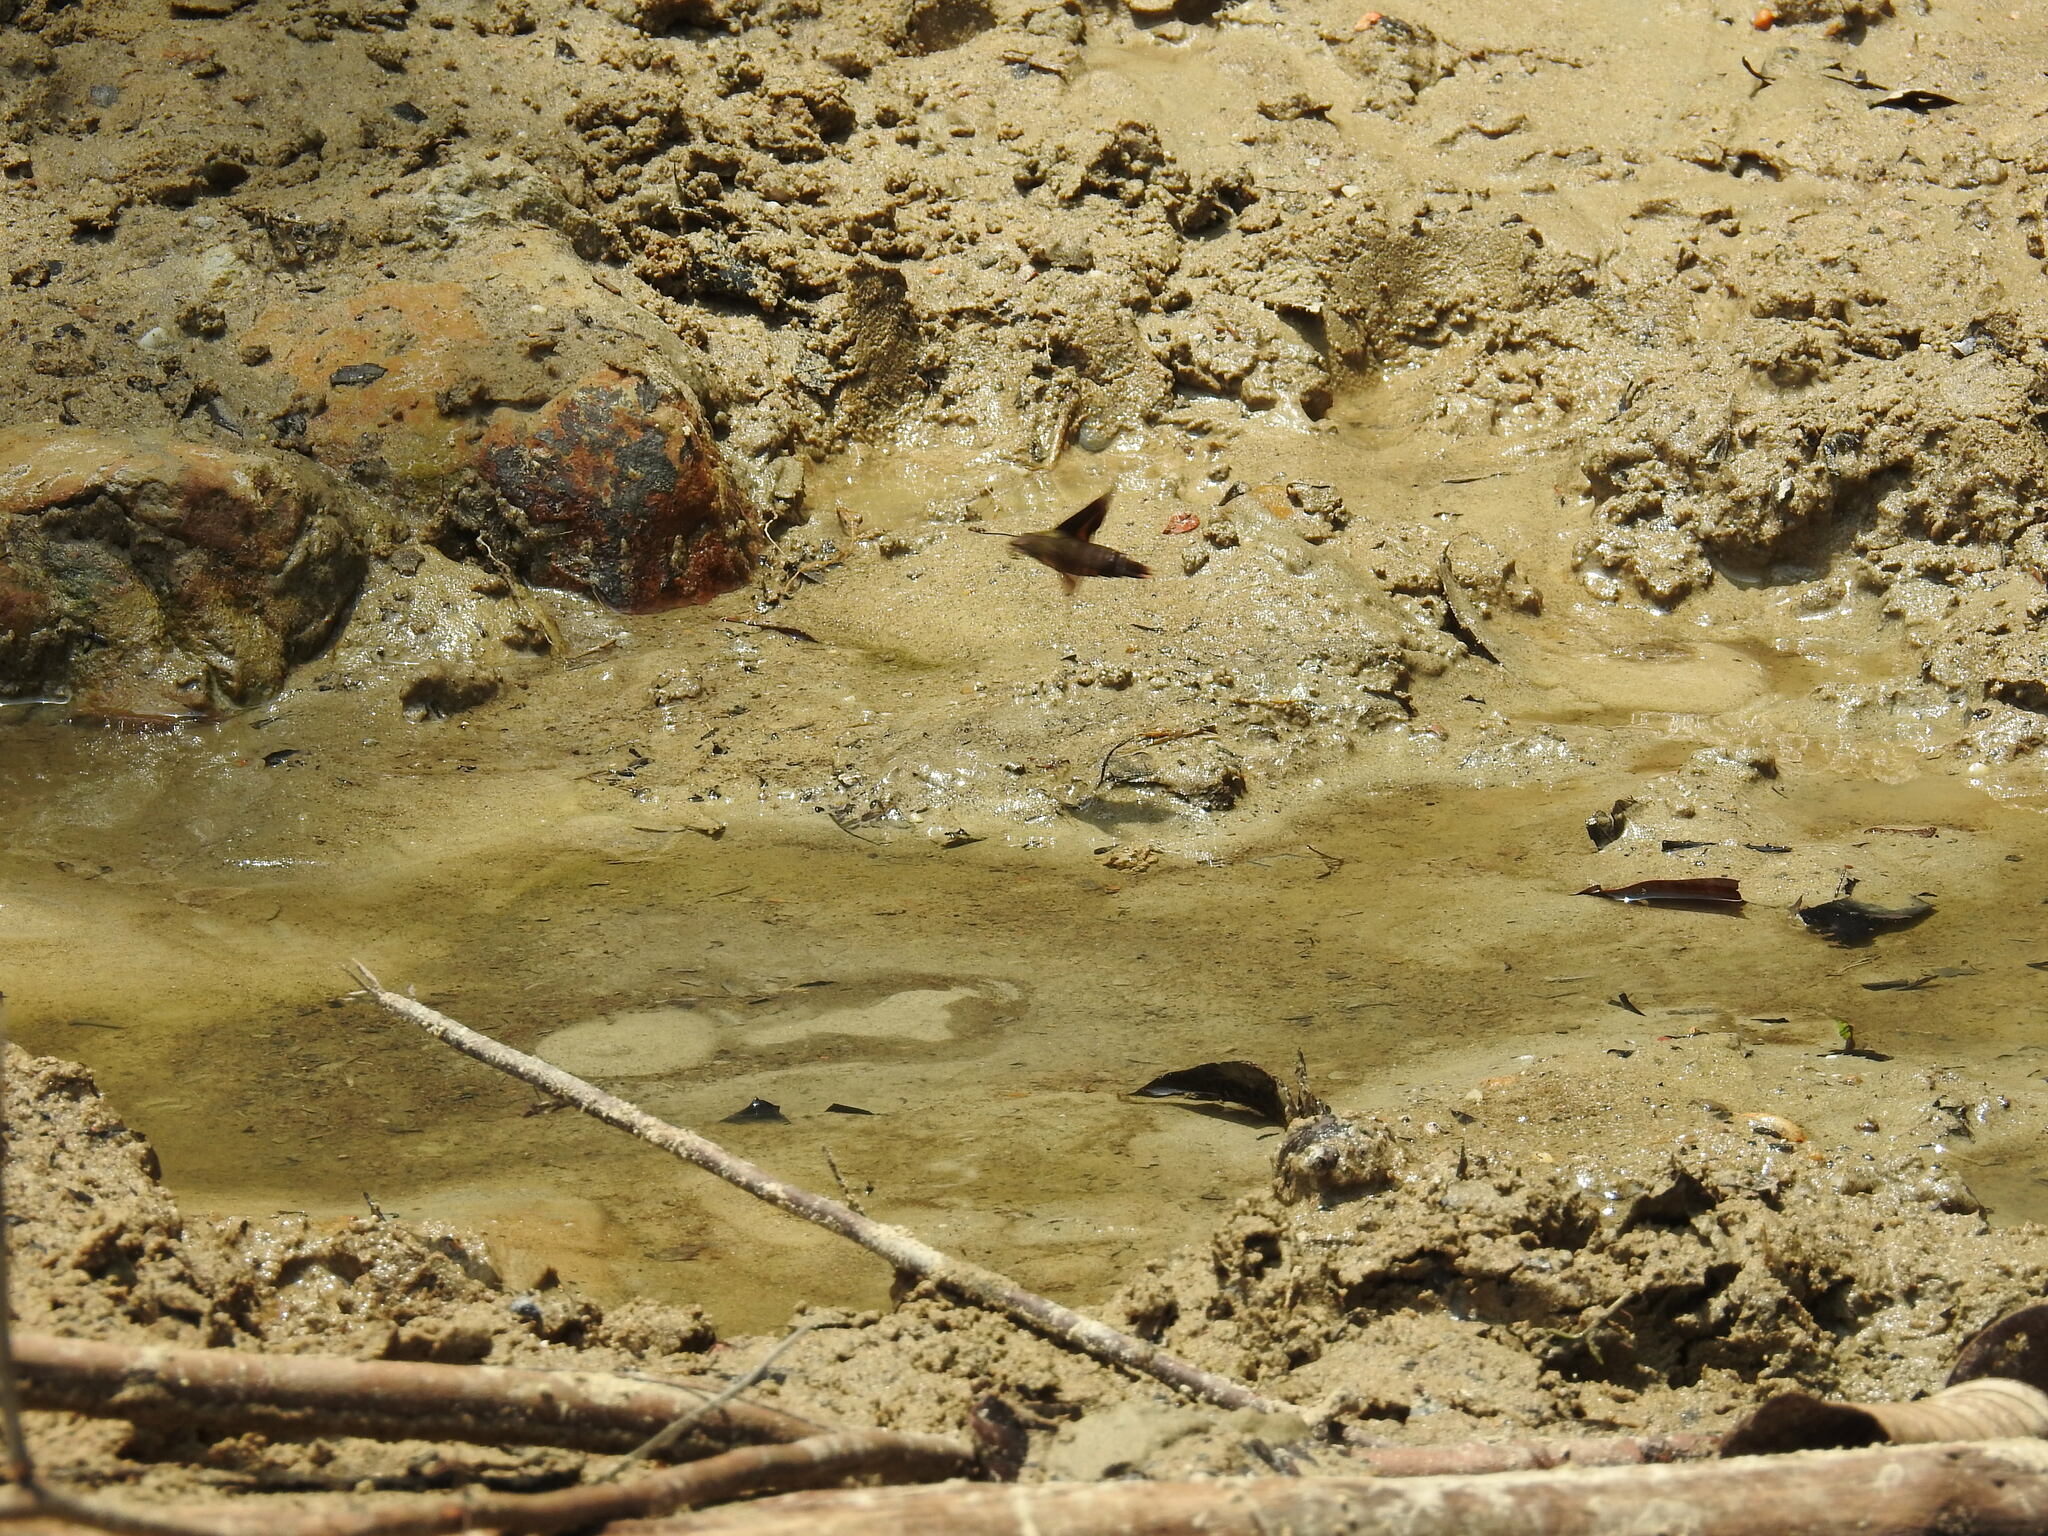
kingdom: Animalia
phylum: Arthropoda
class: Insecta
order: Lepidoptera
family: Sphingidae
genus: Macroglossum
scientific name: Macroglossum passalus
